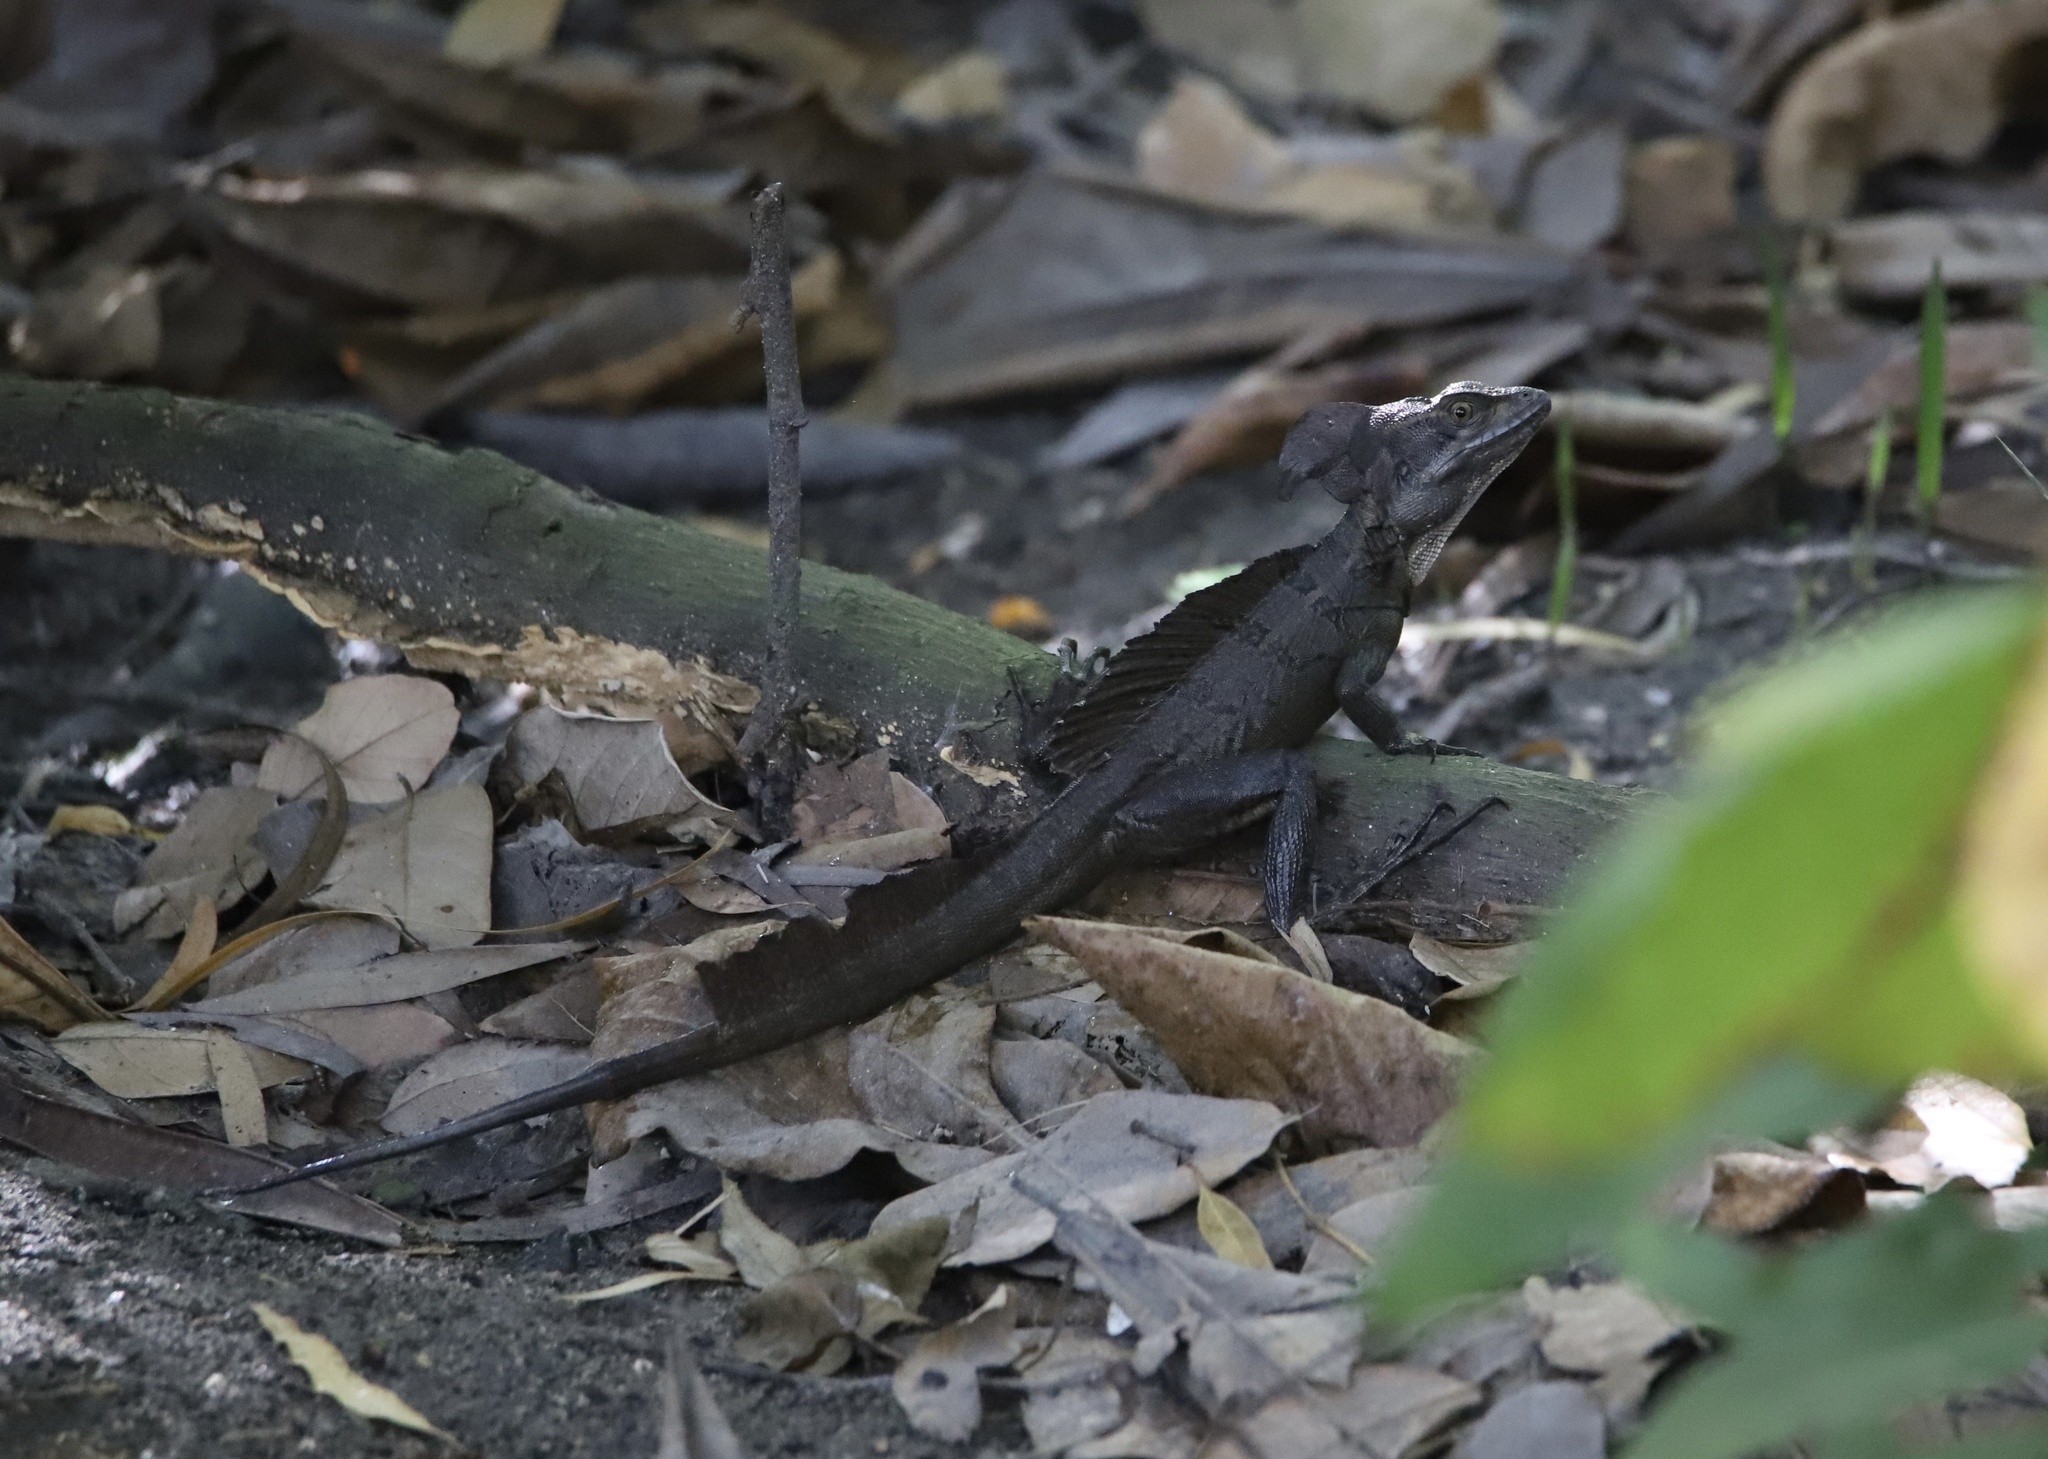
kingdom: Animalia
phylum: Chordata
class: Squamata
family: Corytophanidae
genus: Basiliscus
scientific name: Basiliscus basiliscus
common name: Common basilisk
